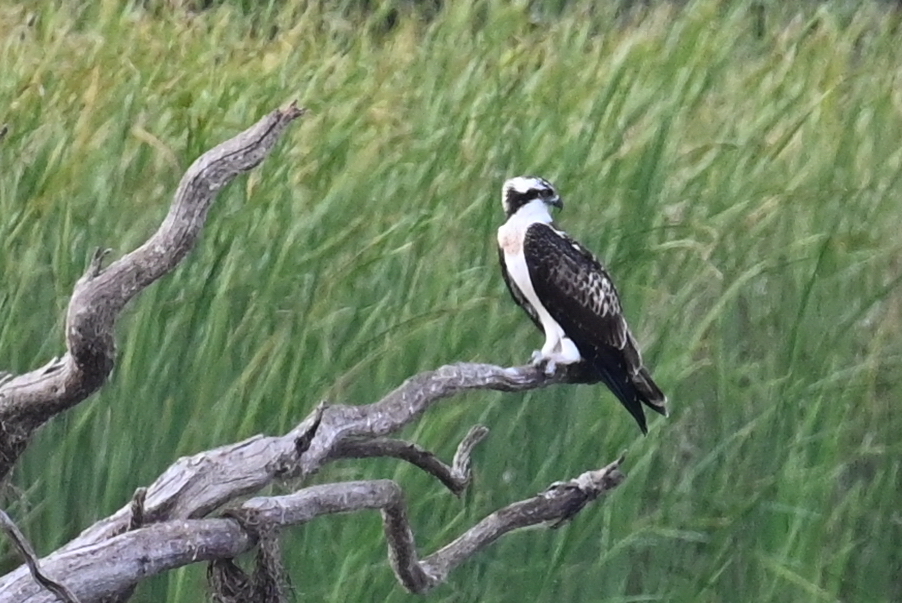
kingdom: Animalia
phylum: Chordata
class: Aves
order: Accipitriformes
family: Pandionidae
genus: Pandion
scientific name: Pandion haliaetus
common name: Osprey
